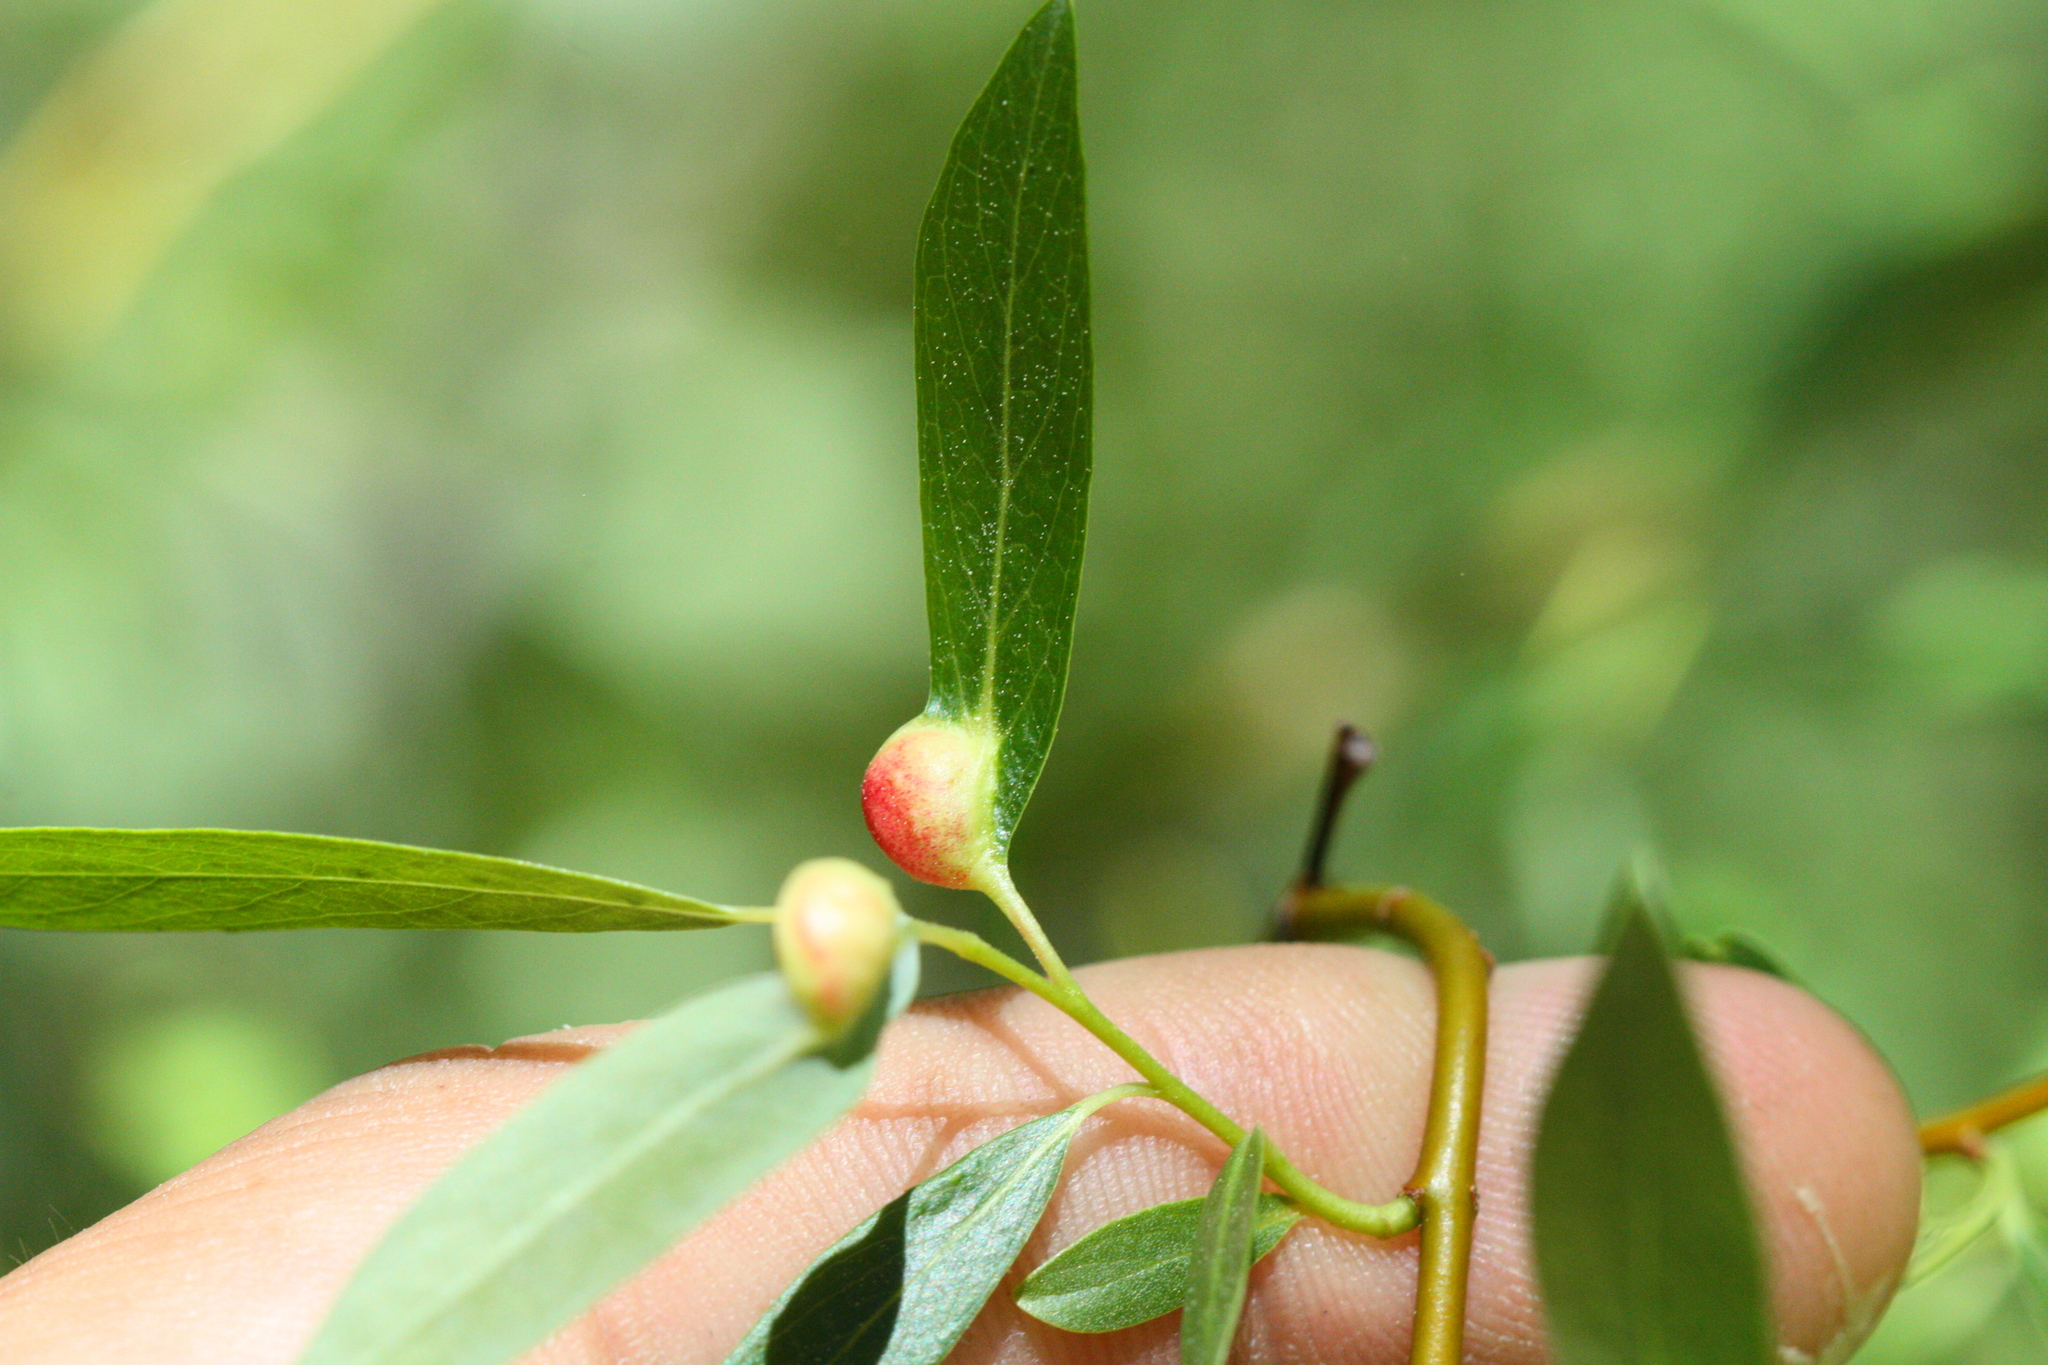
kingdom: Animalia
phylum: Arthropoda
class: Insecta
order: Hymenoptera
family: Tenthredinidae
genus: Euura
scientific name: Euura
